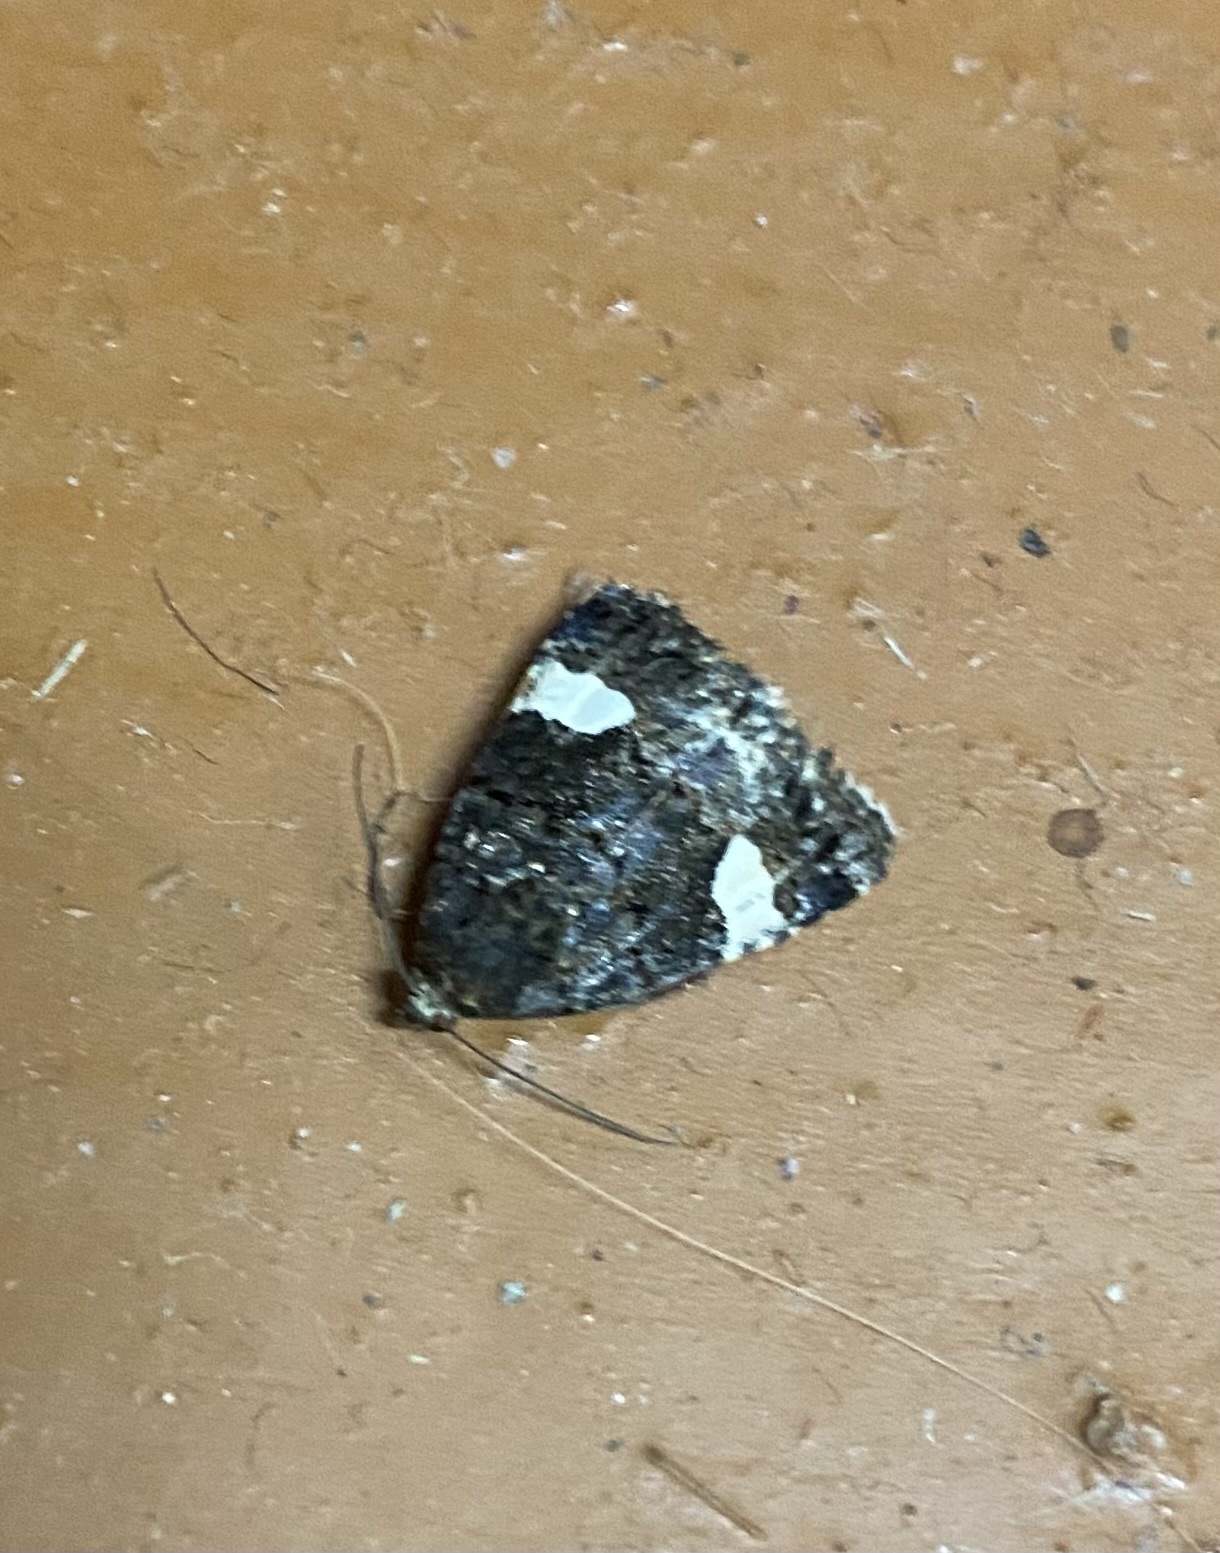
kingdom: Animalia
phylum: Arthropoda
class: Insecta
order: Lepidoptera
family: Erebidae
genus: Tyta
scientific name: Tyta luctuosa
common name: Four-spotted
